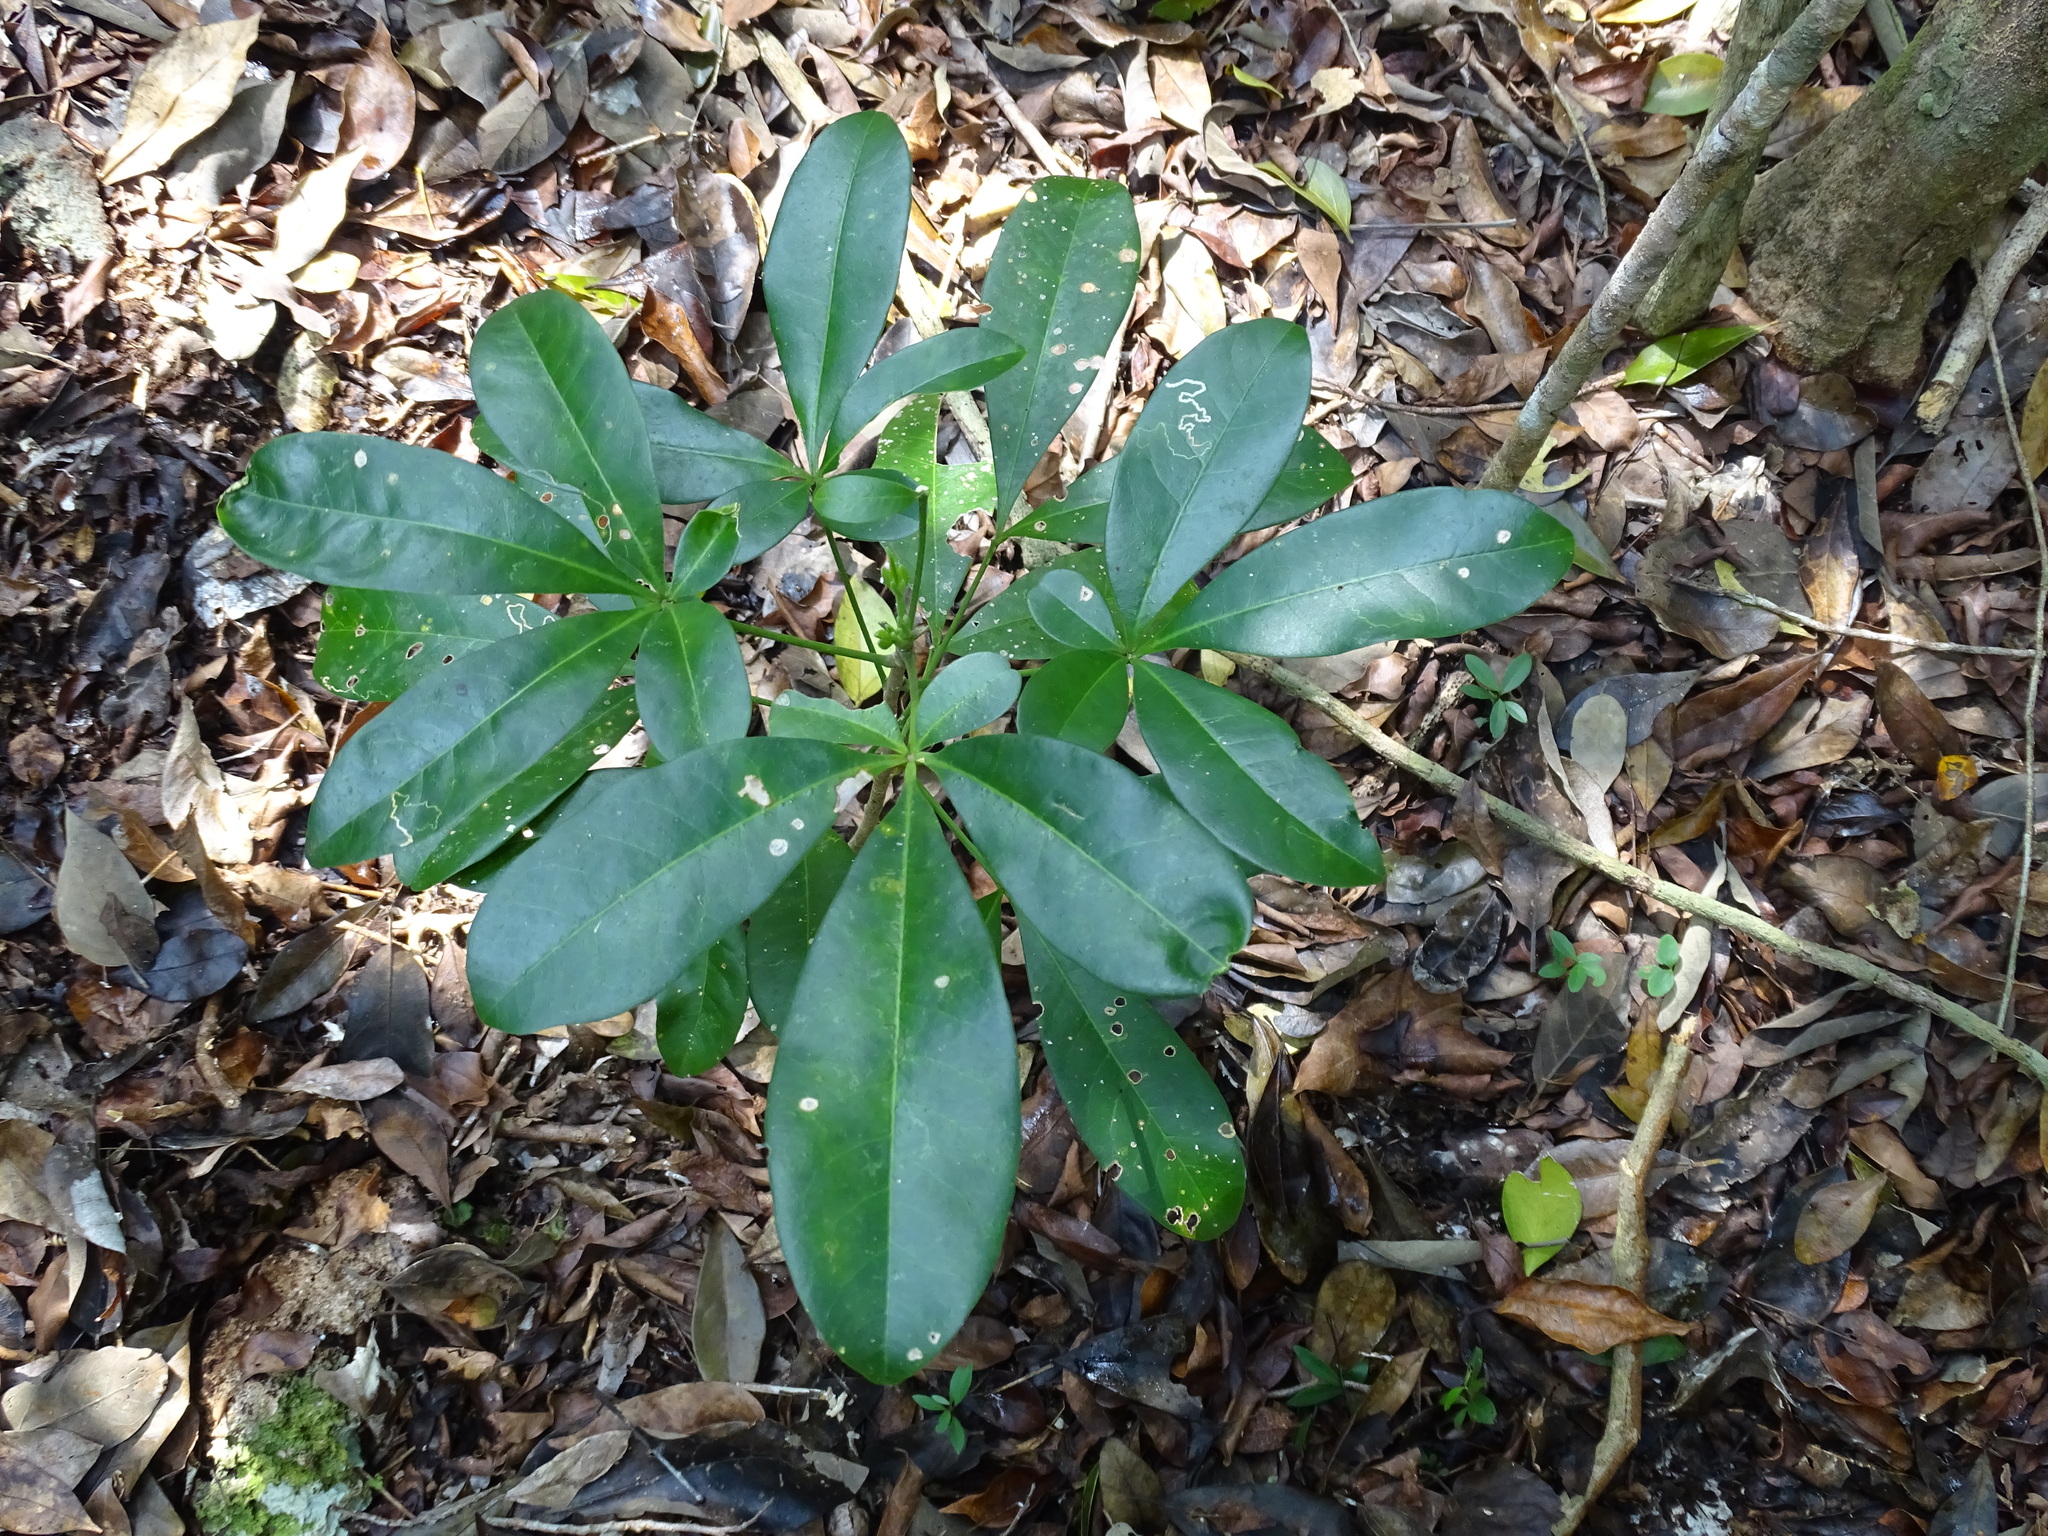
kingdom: Plantae
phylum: Tracheophyta
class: Magnoliopsida
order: Sapindales
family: Rutaceae
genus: Esenbeckia
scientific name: Esenbeckia pentaphylla
